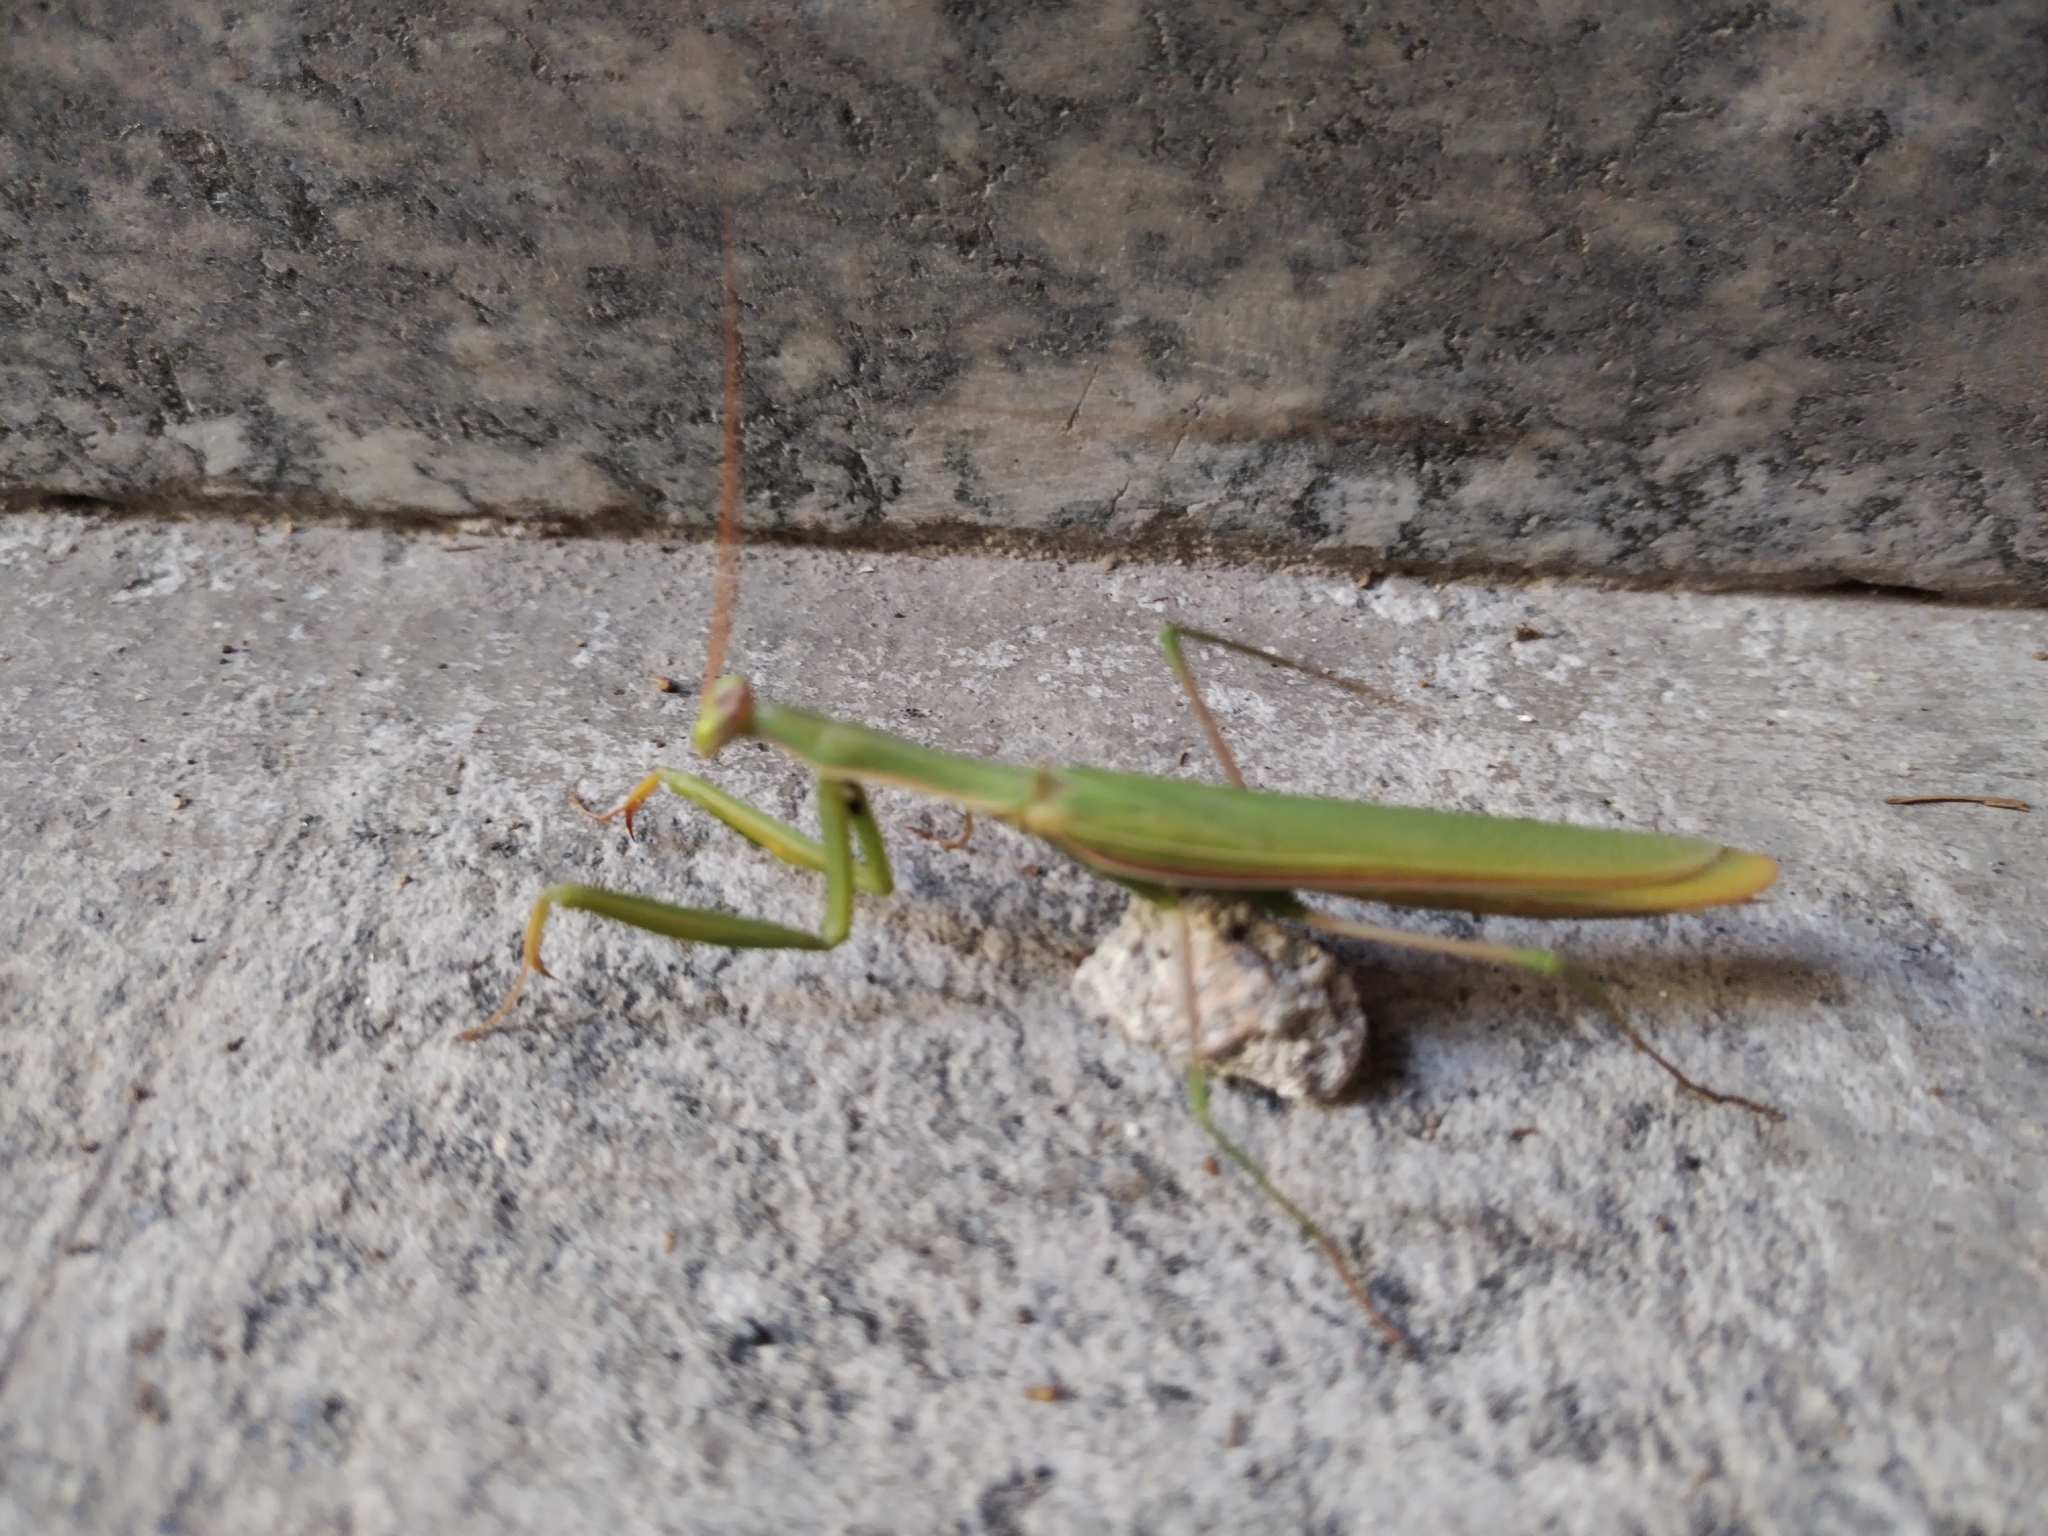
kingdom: Animalia
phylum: Arthropoda
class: Insecta
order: Mantodea
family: Mantidae
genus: Mantis
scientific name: Mantis religiosa
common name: Praying mantis
